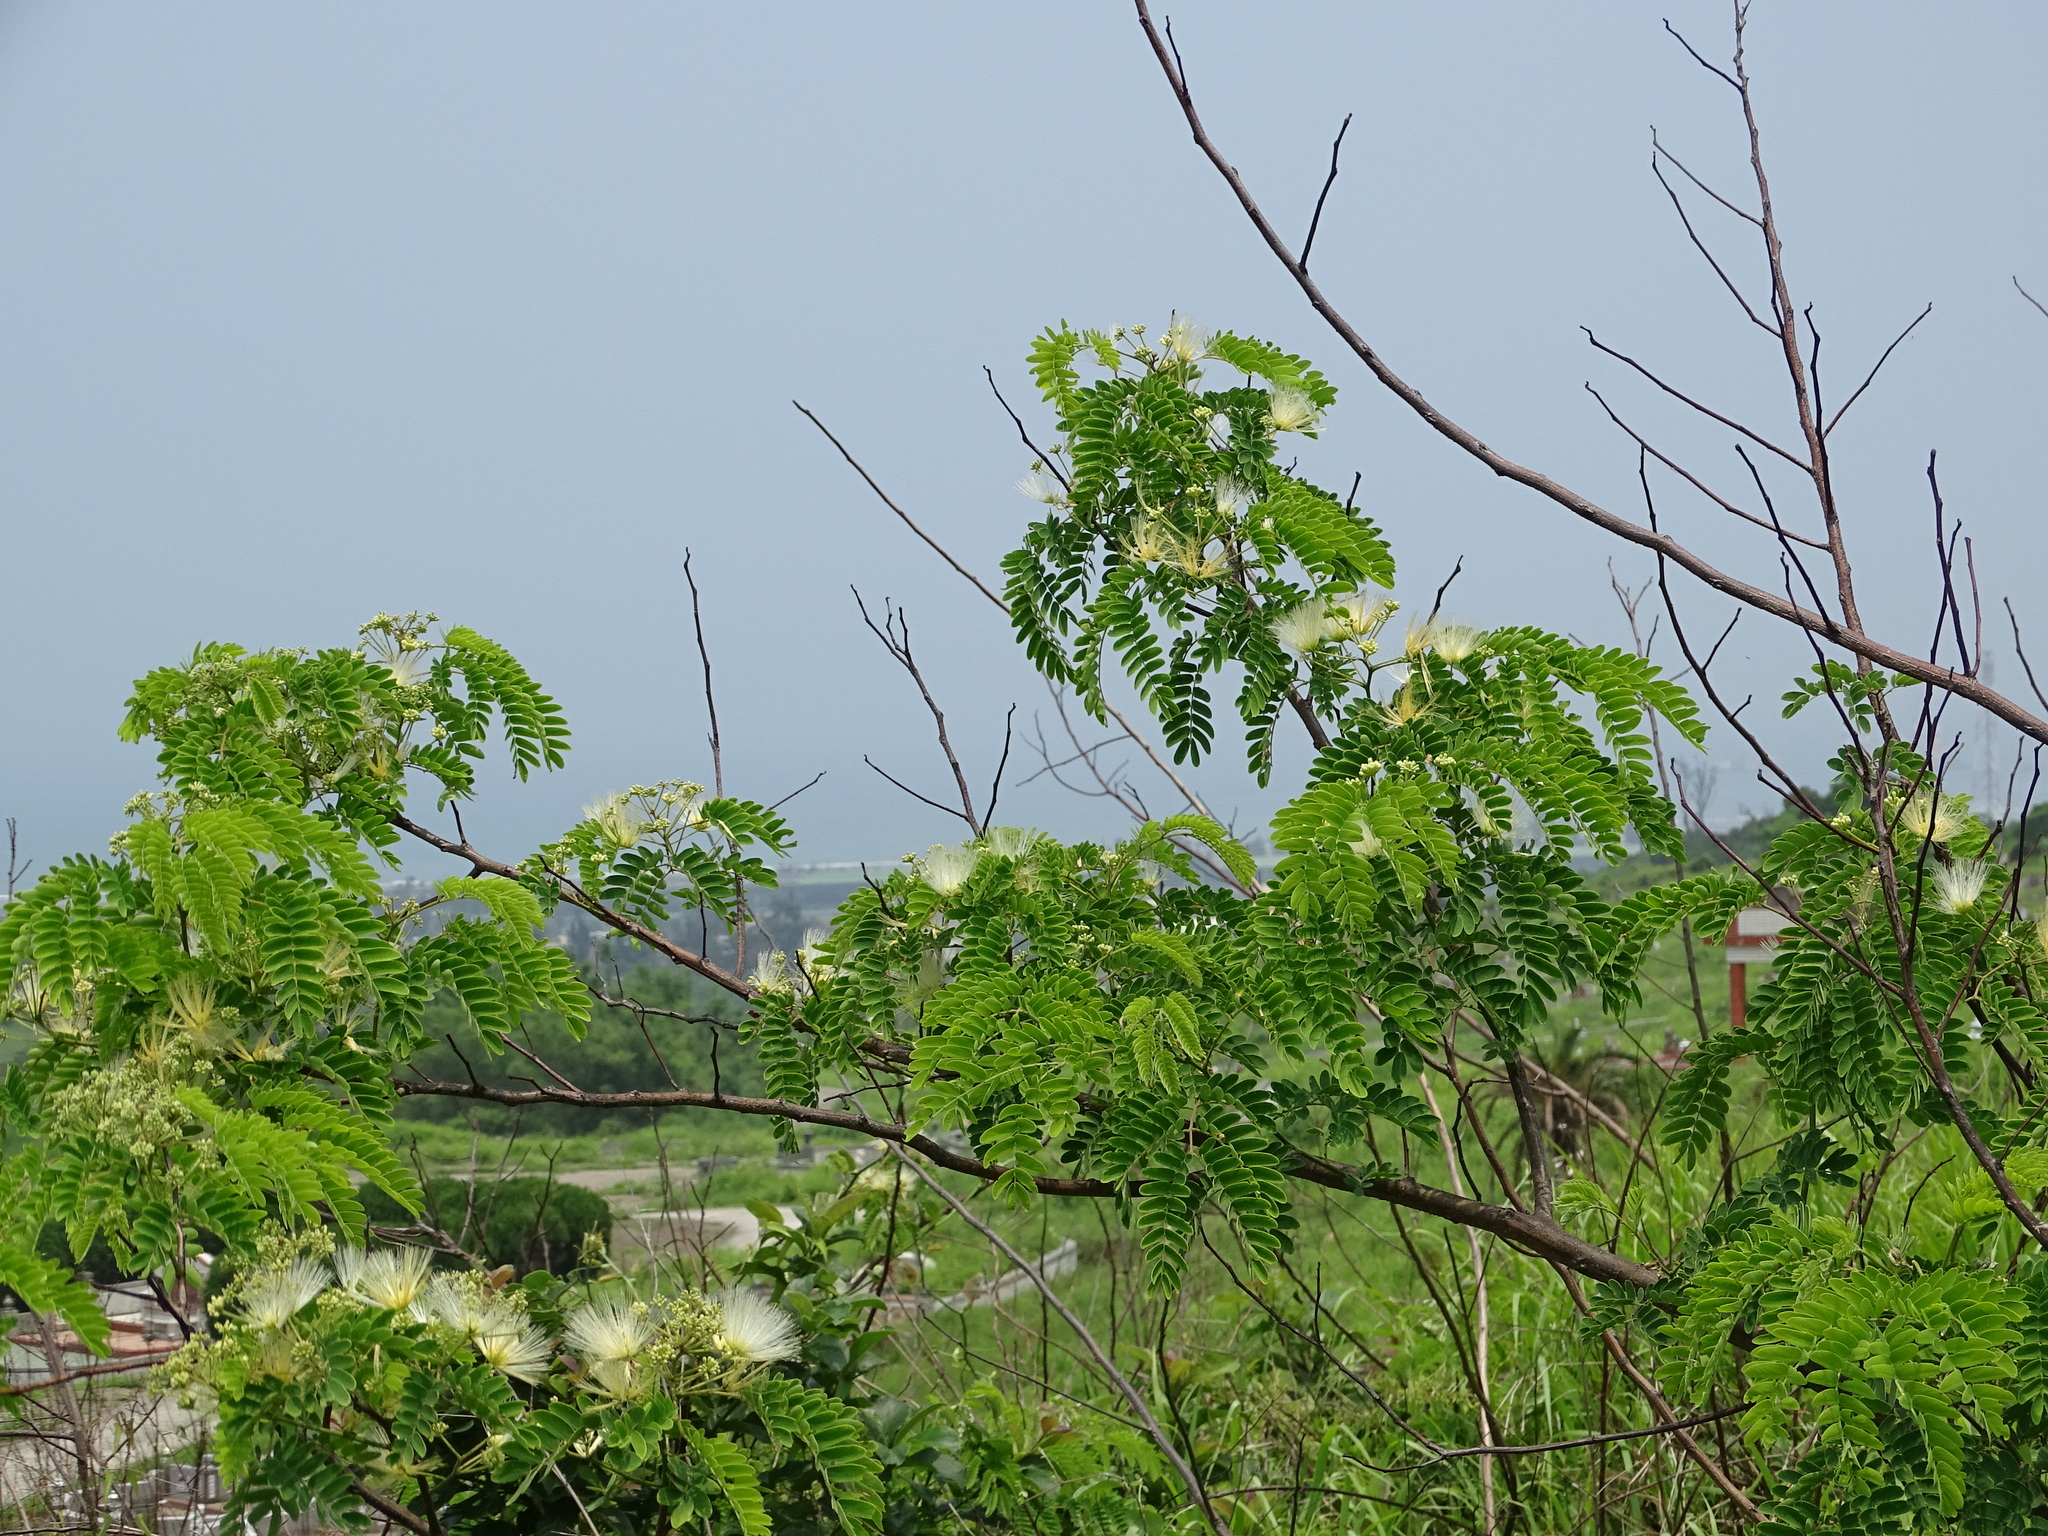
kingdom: Plantae
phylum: Tracheophyta
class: Magnoliopsida
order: Fabales
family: Fabaceae
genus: Albizia
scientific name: Albizia kalkora
